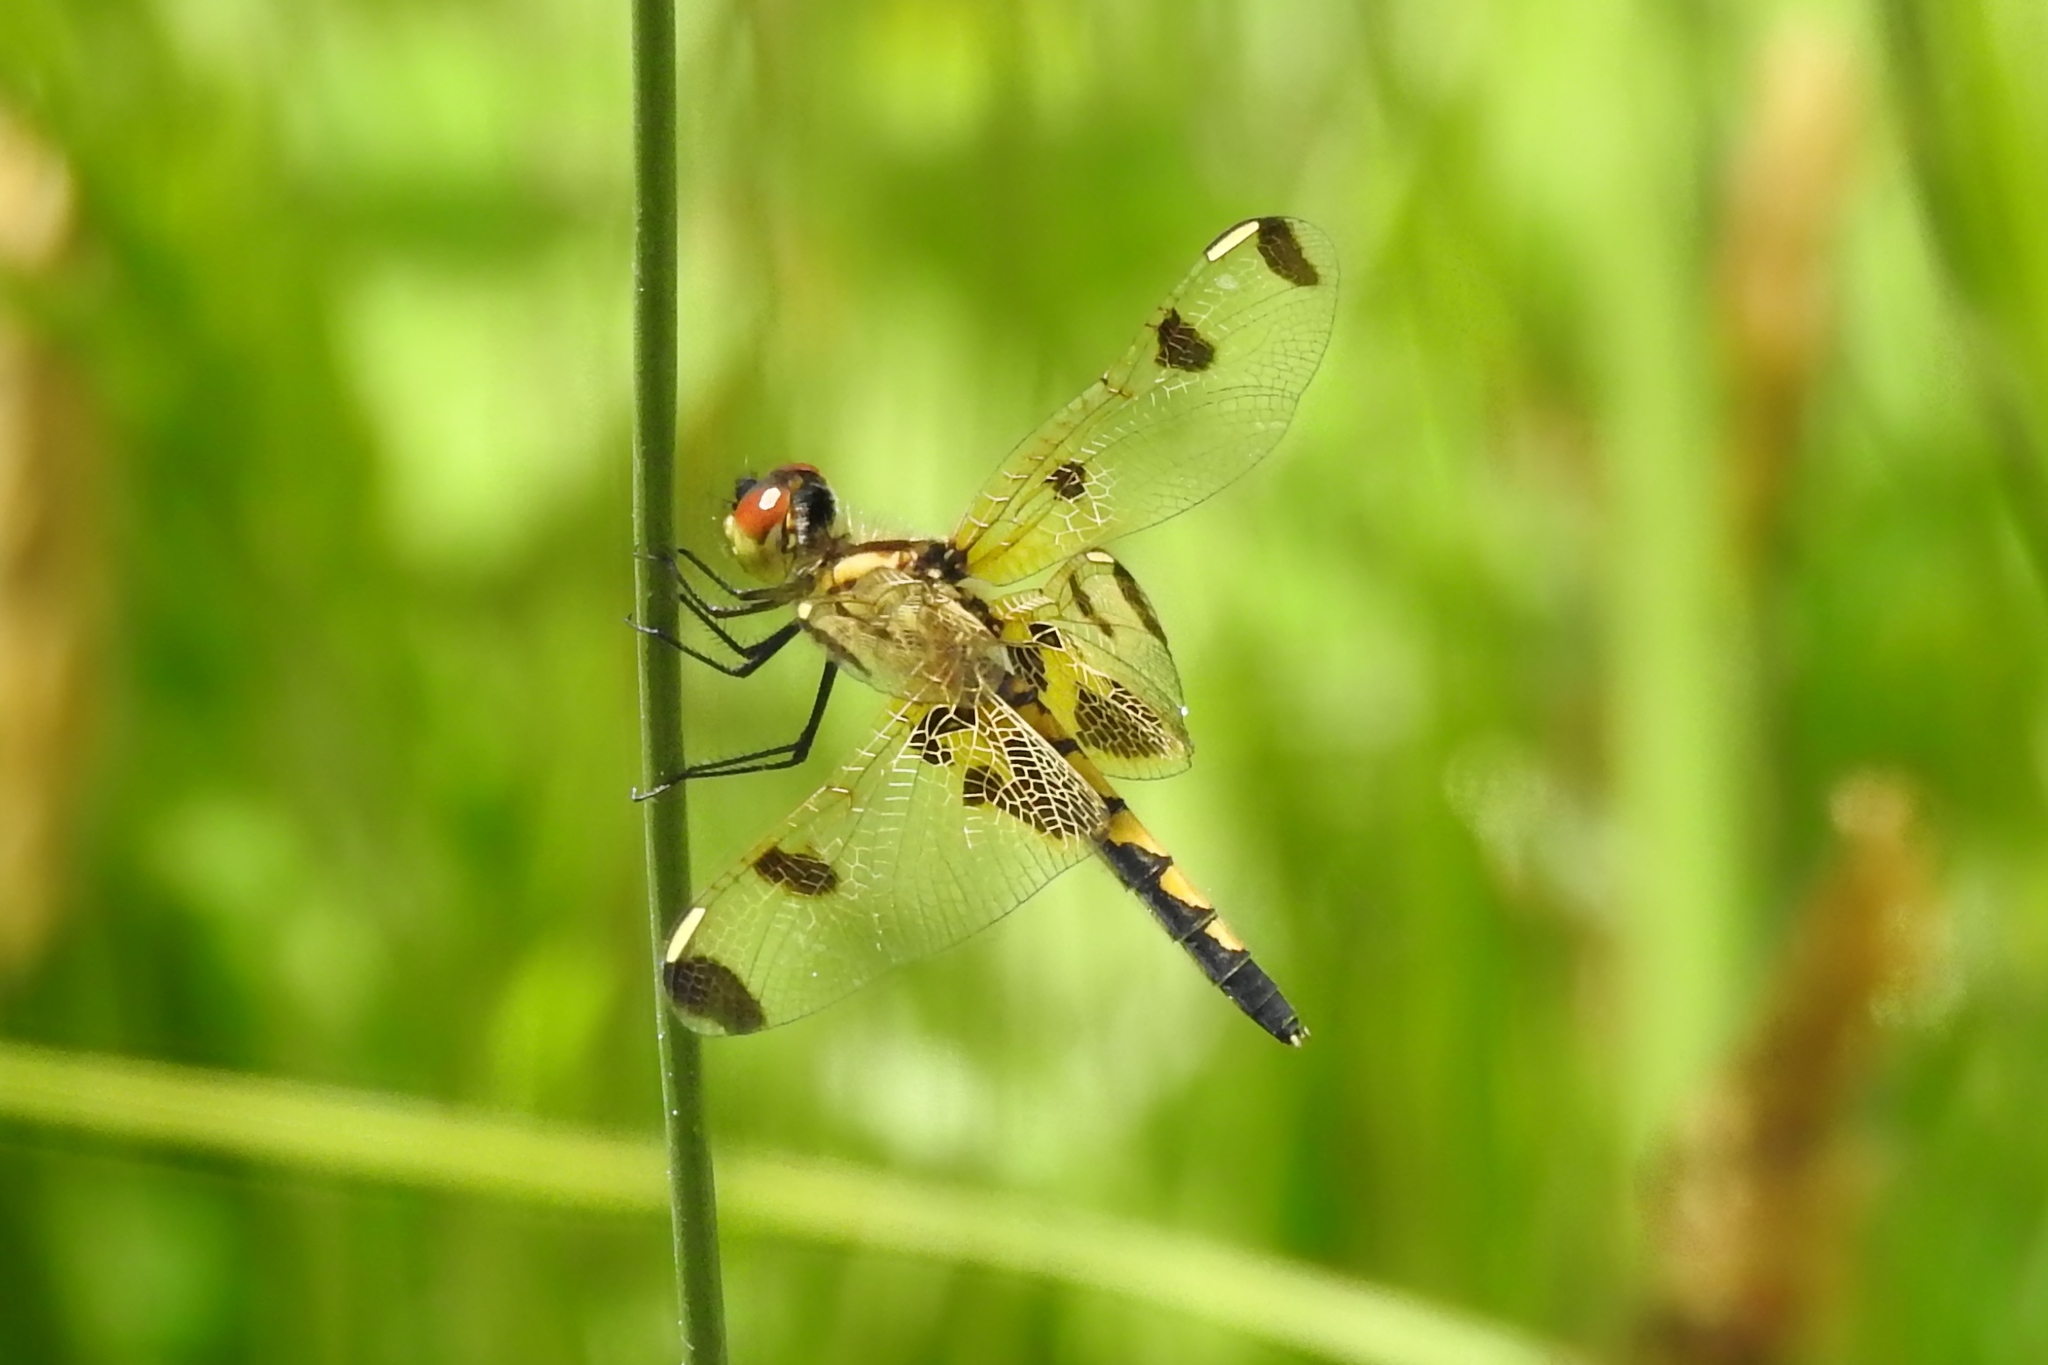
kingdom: Animalia
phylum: Arthropoda
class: Insecta
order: Odonata
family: Libellulidae
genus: Celithemis
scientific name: Celithemis elisa
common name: Calico pennant
